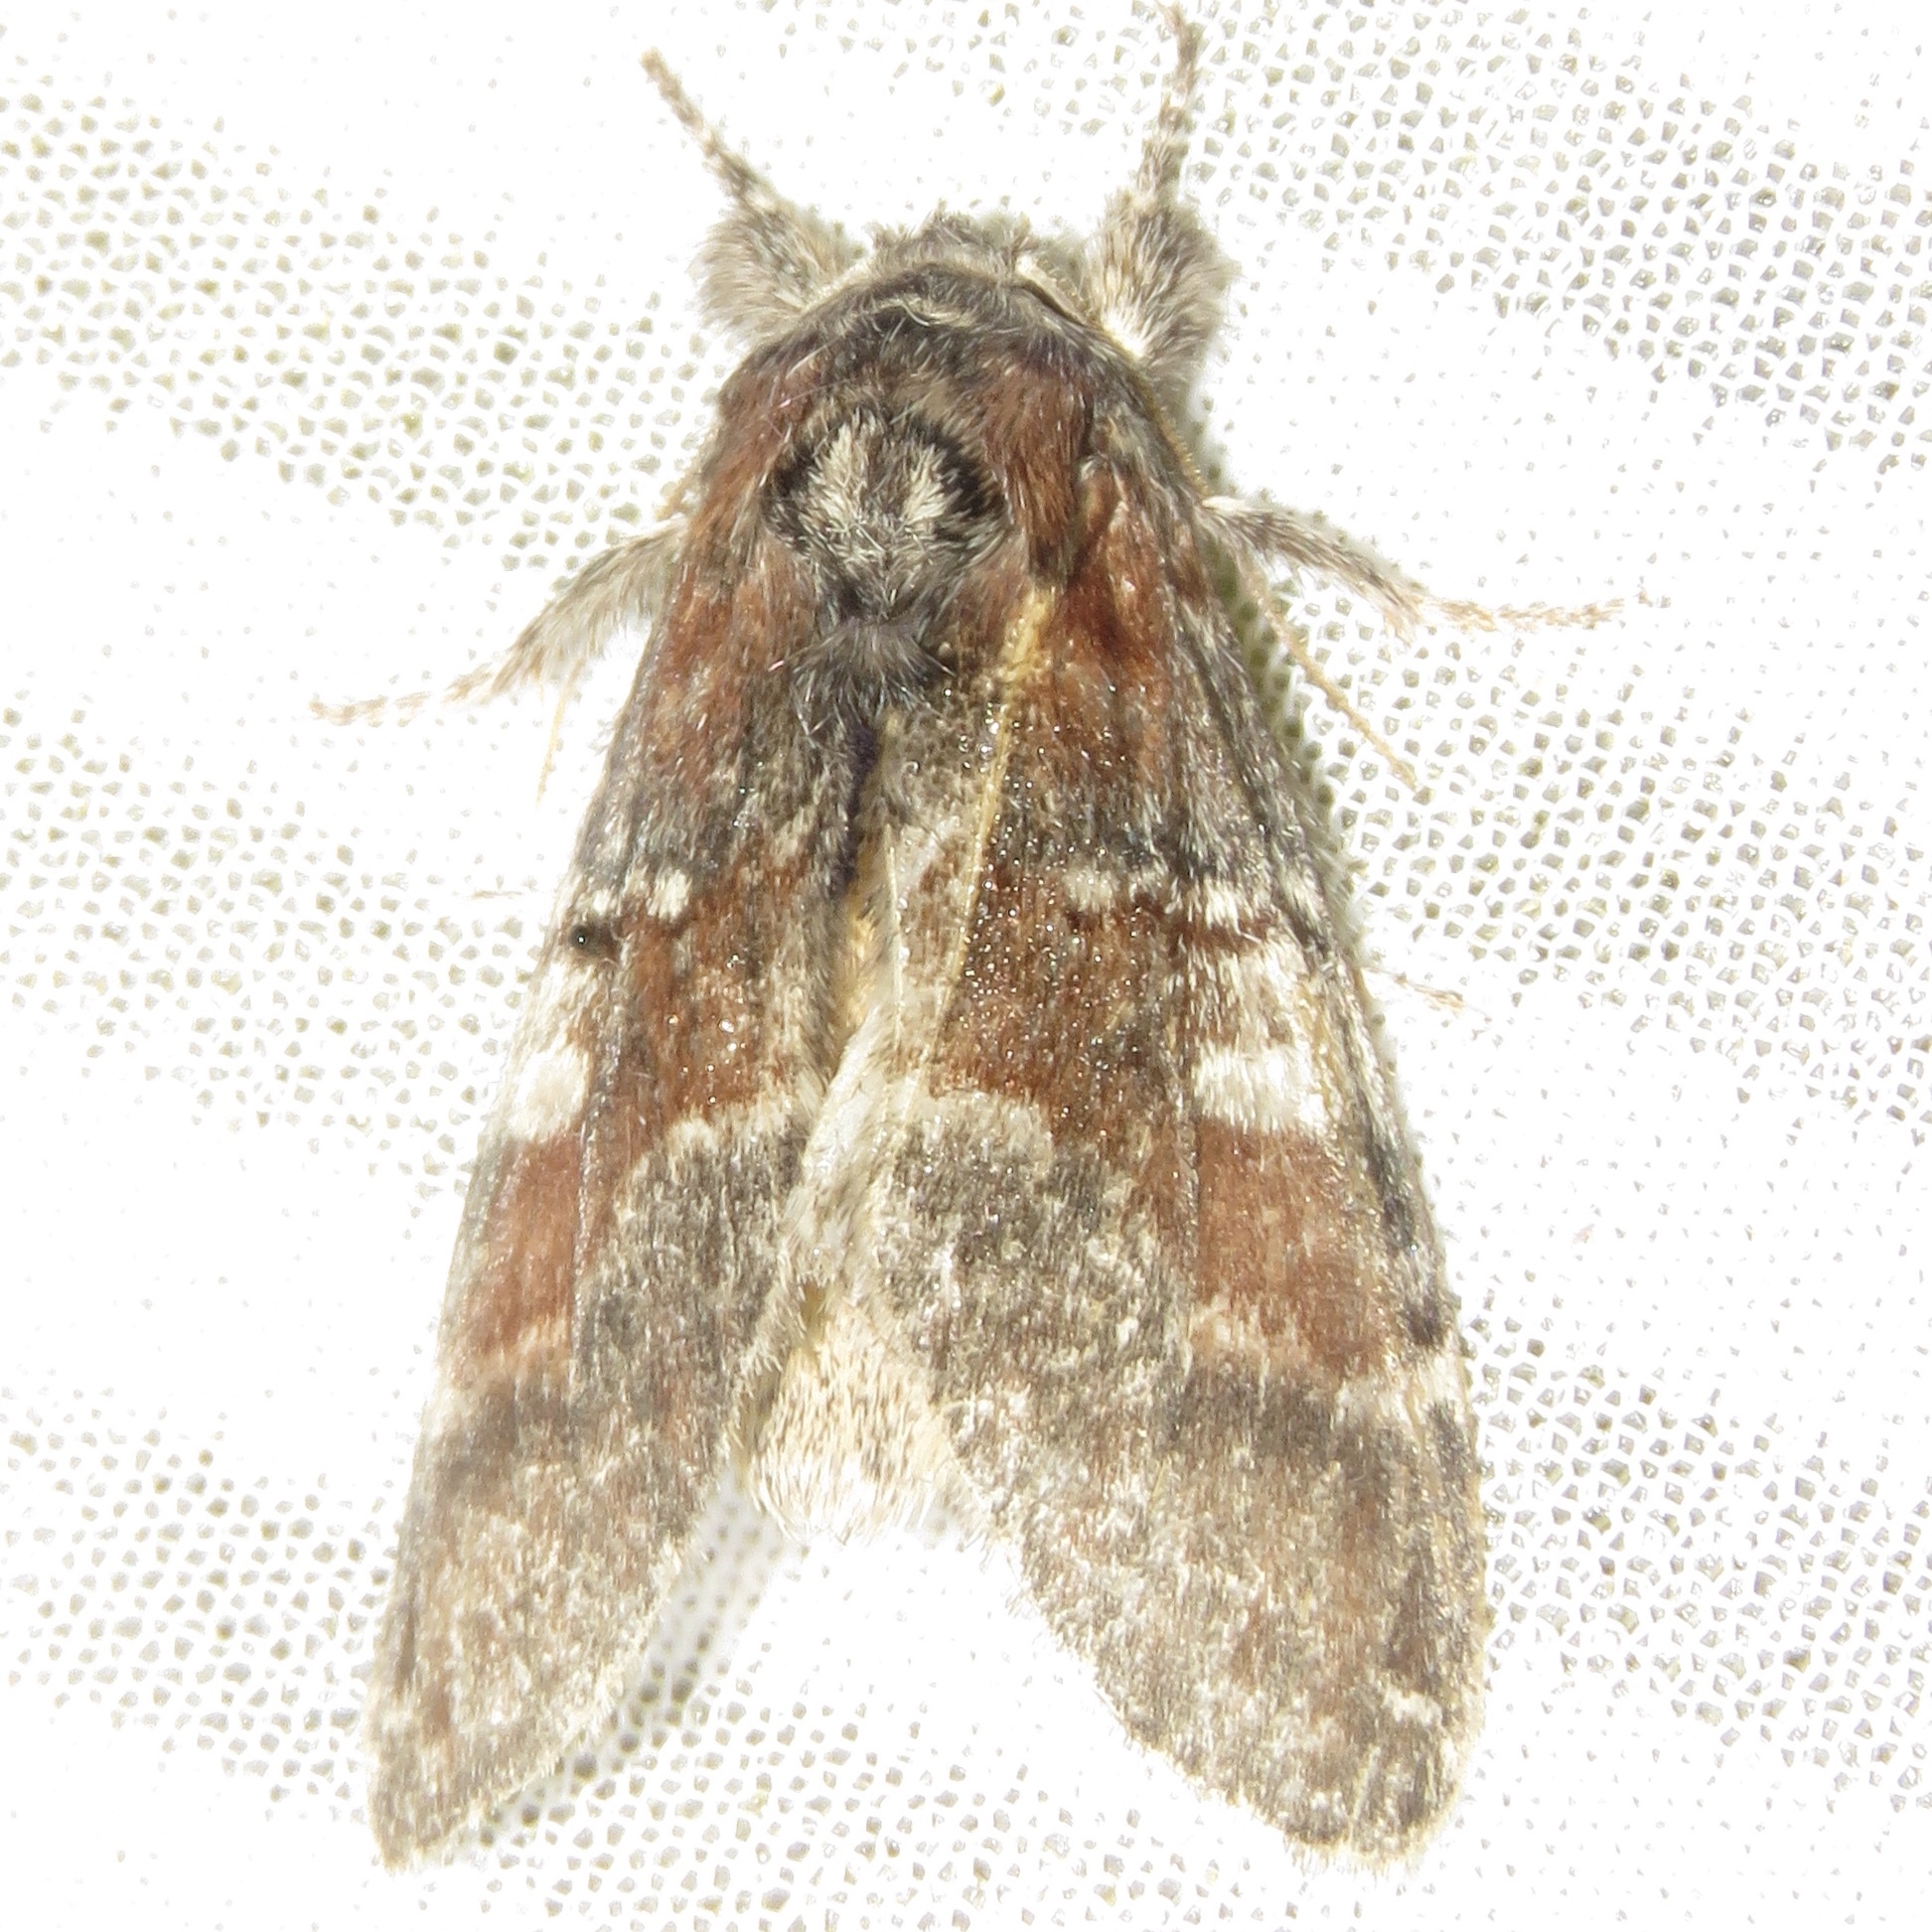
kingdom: Animalia
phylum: Arthropoda
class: Insecta
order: Lepidoptera
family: Notodontidae
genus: Peridea
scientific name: Peridea ferruginea
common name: Chocolate prominent
